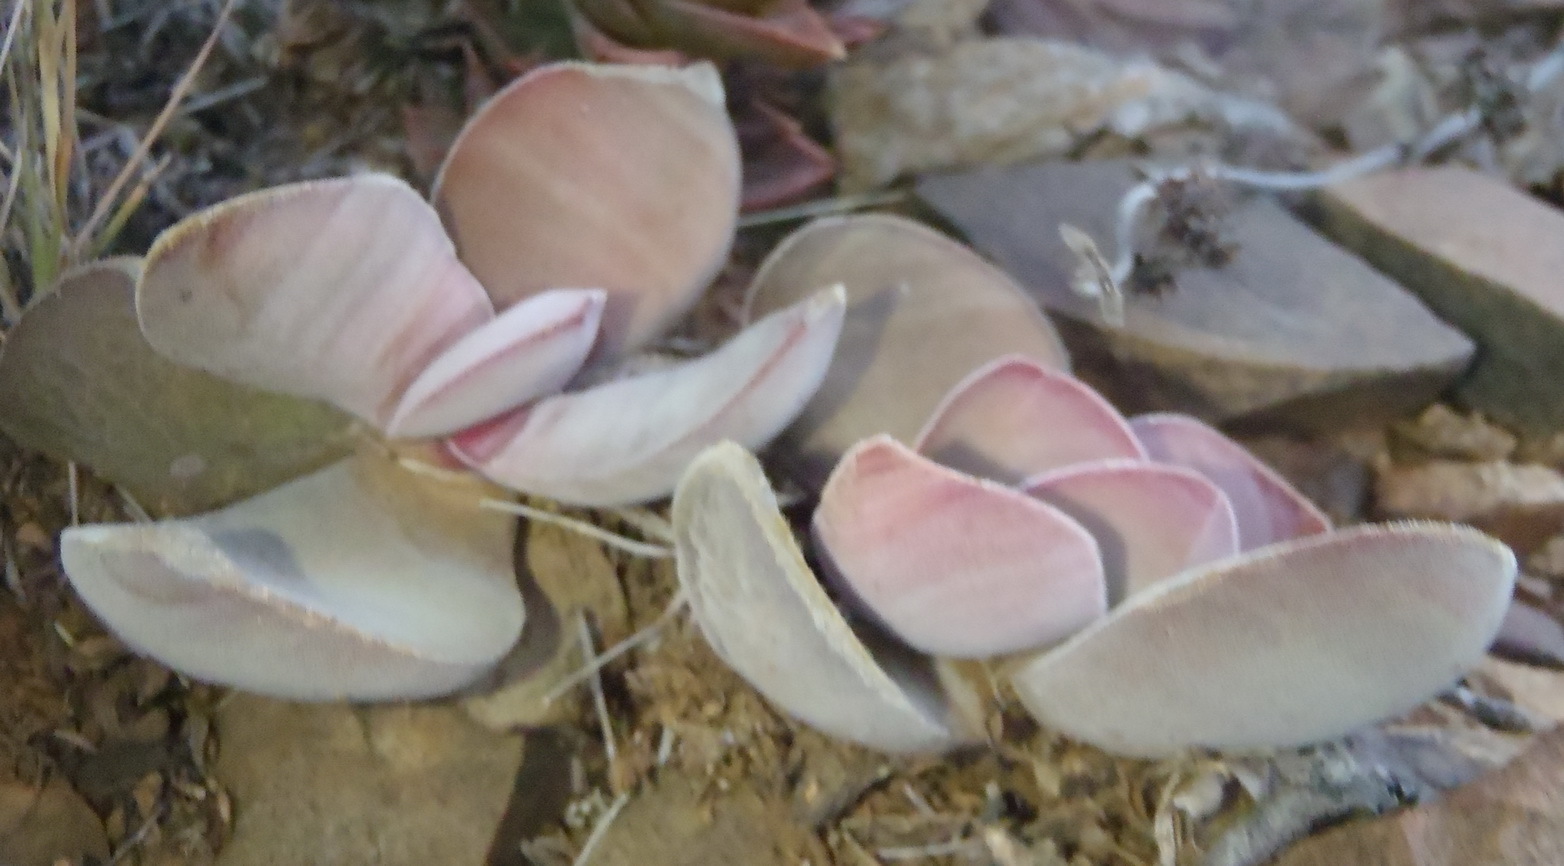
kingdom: Plantae
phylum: Tracheophyta
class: Magnoliopsida
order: Saxifragales
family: Crassulaceae
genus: Crassula
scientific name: Crassula cotyledonis
